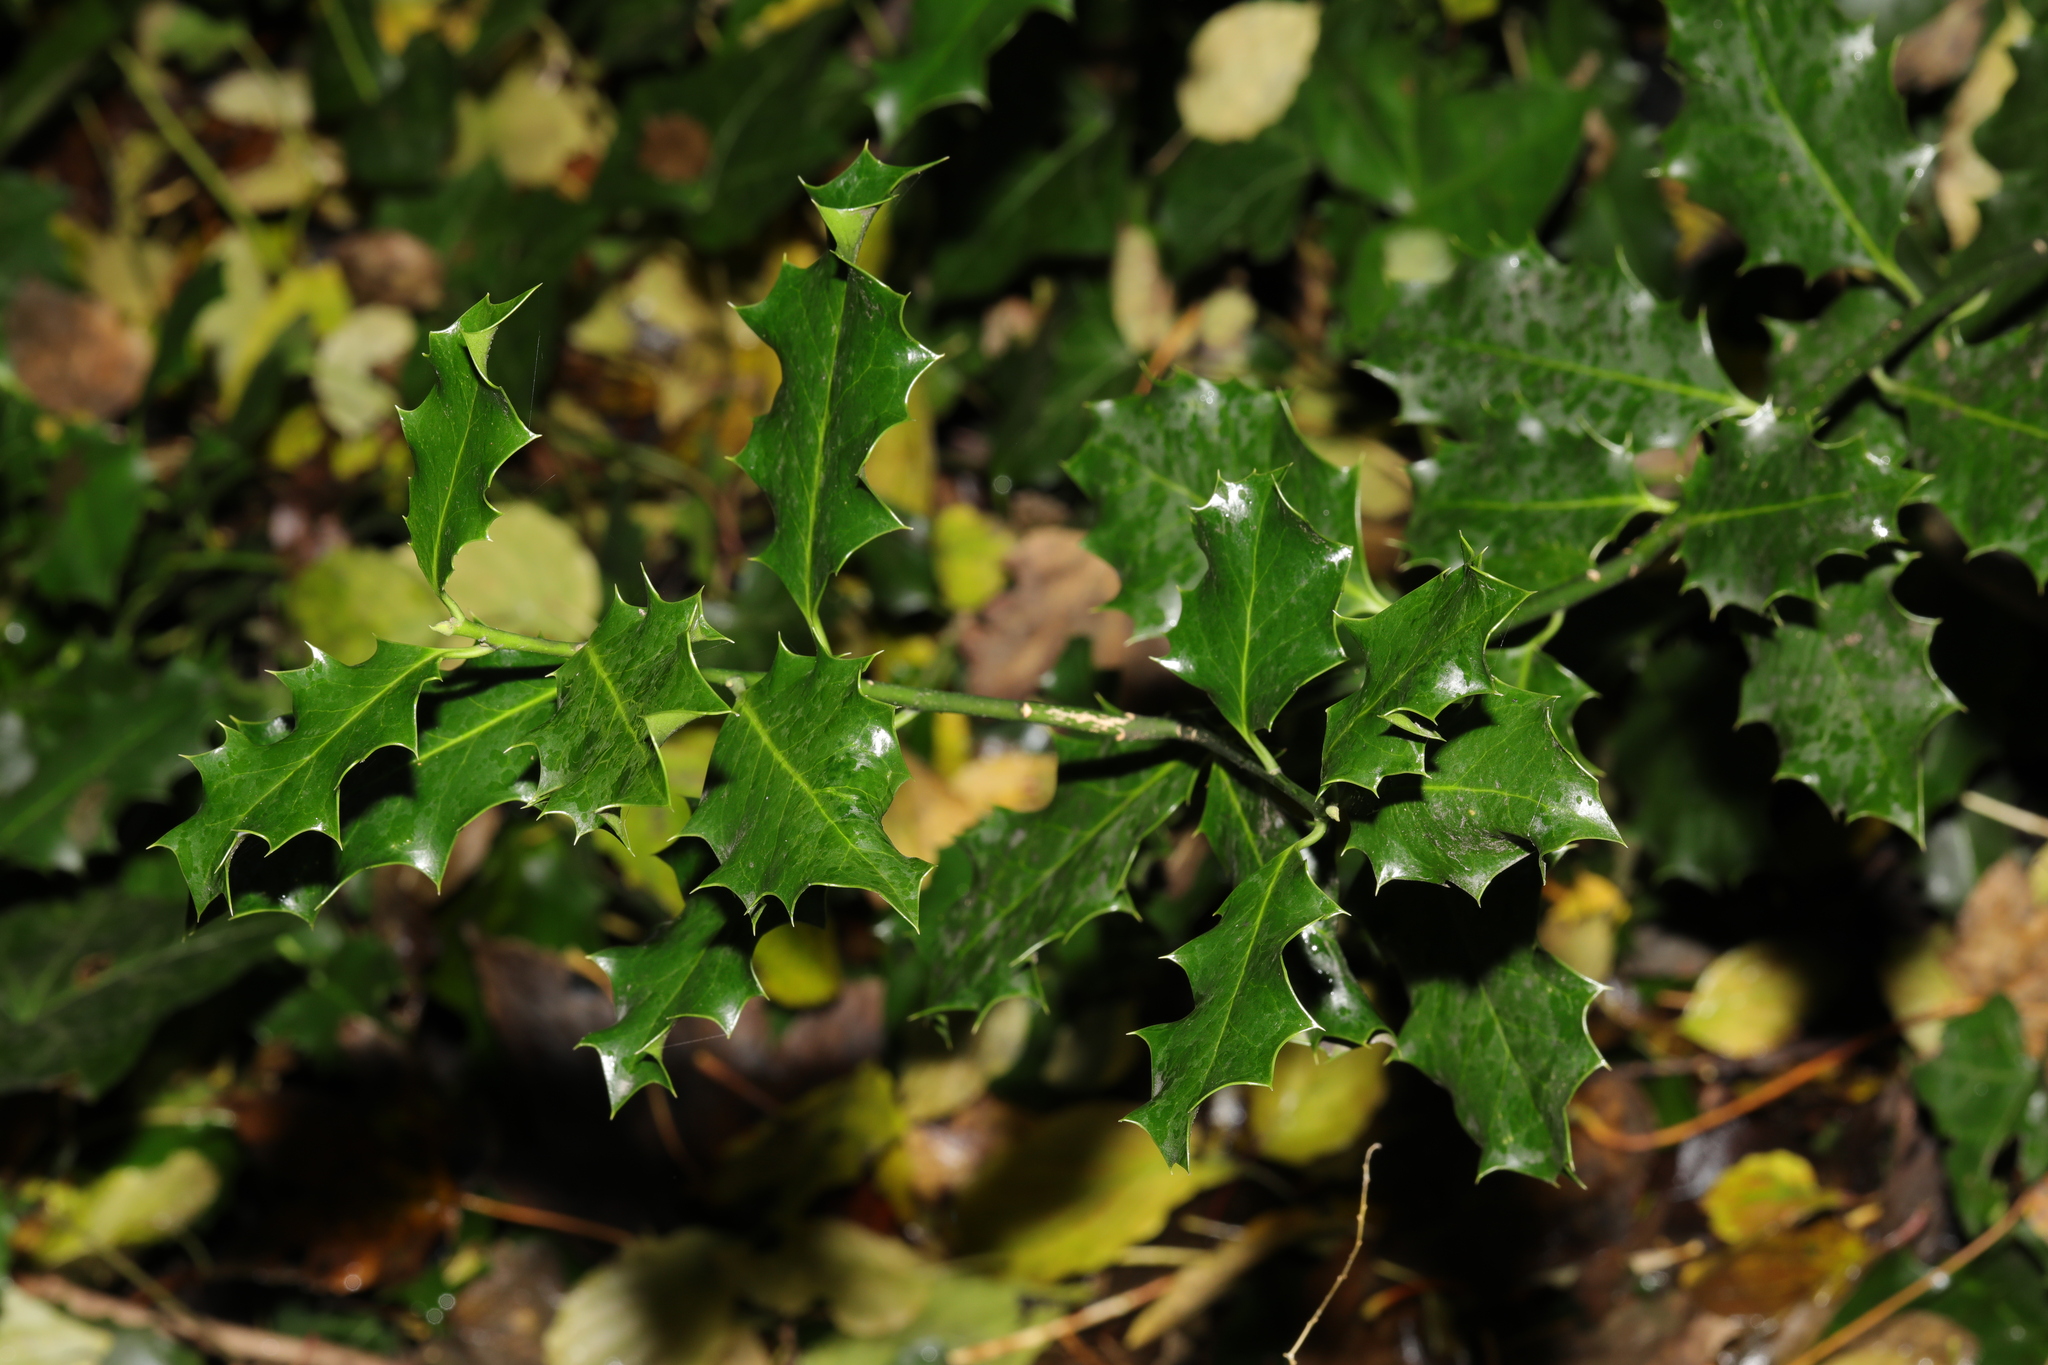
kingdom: Plantae
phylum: Tracheophyta
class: Magnoliopsida
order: Aquifoliales
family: Aquifoliaceae
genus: Ilex
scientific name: Ilex aquifolium
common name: English holly
